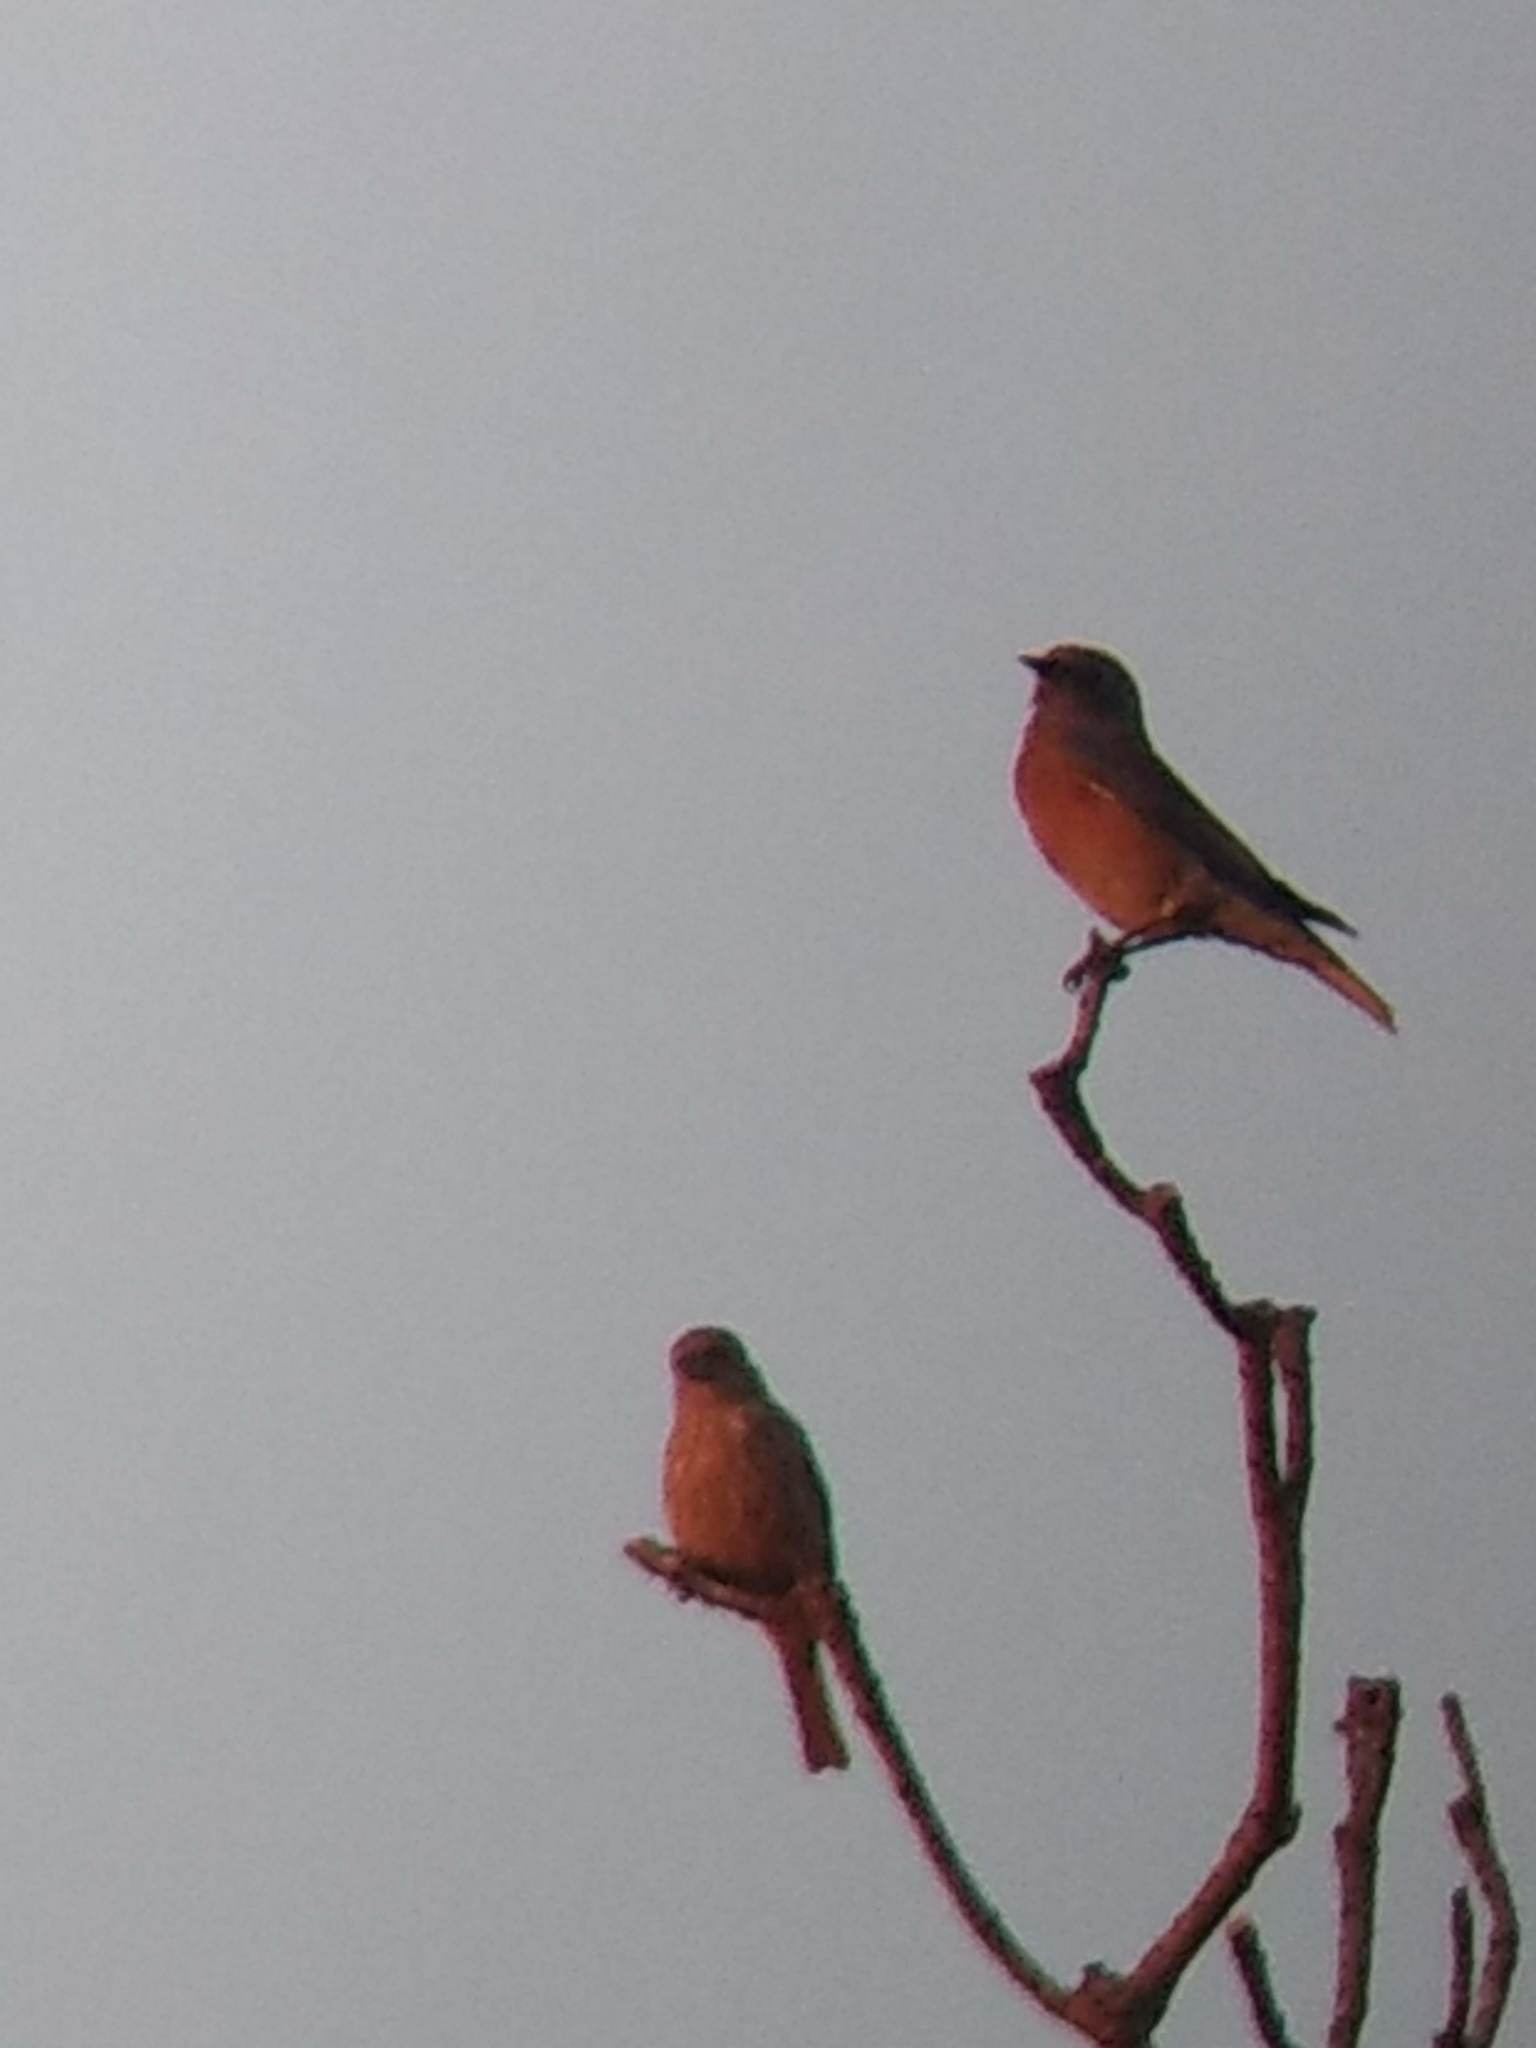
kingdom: Animalia
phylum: Chordata
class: Aves
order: Passeriformes
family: Turdidae
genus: Sialia
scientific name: Sialia mexicana
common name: Western bluebird
